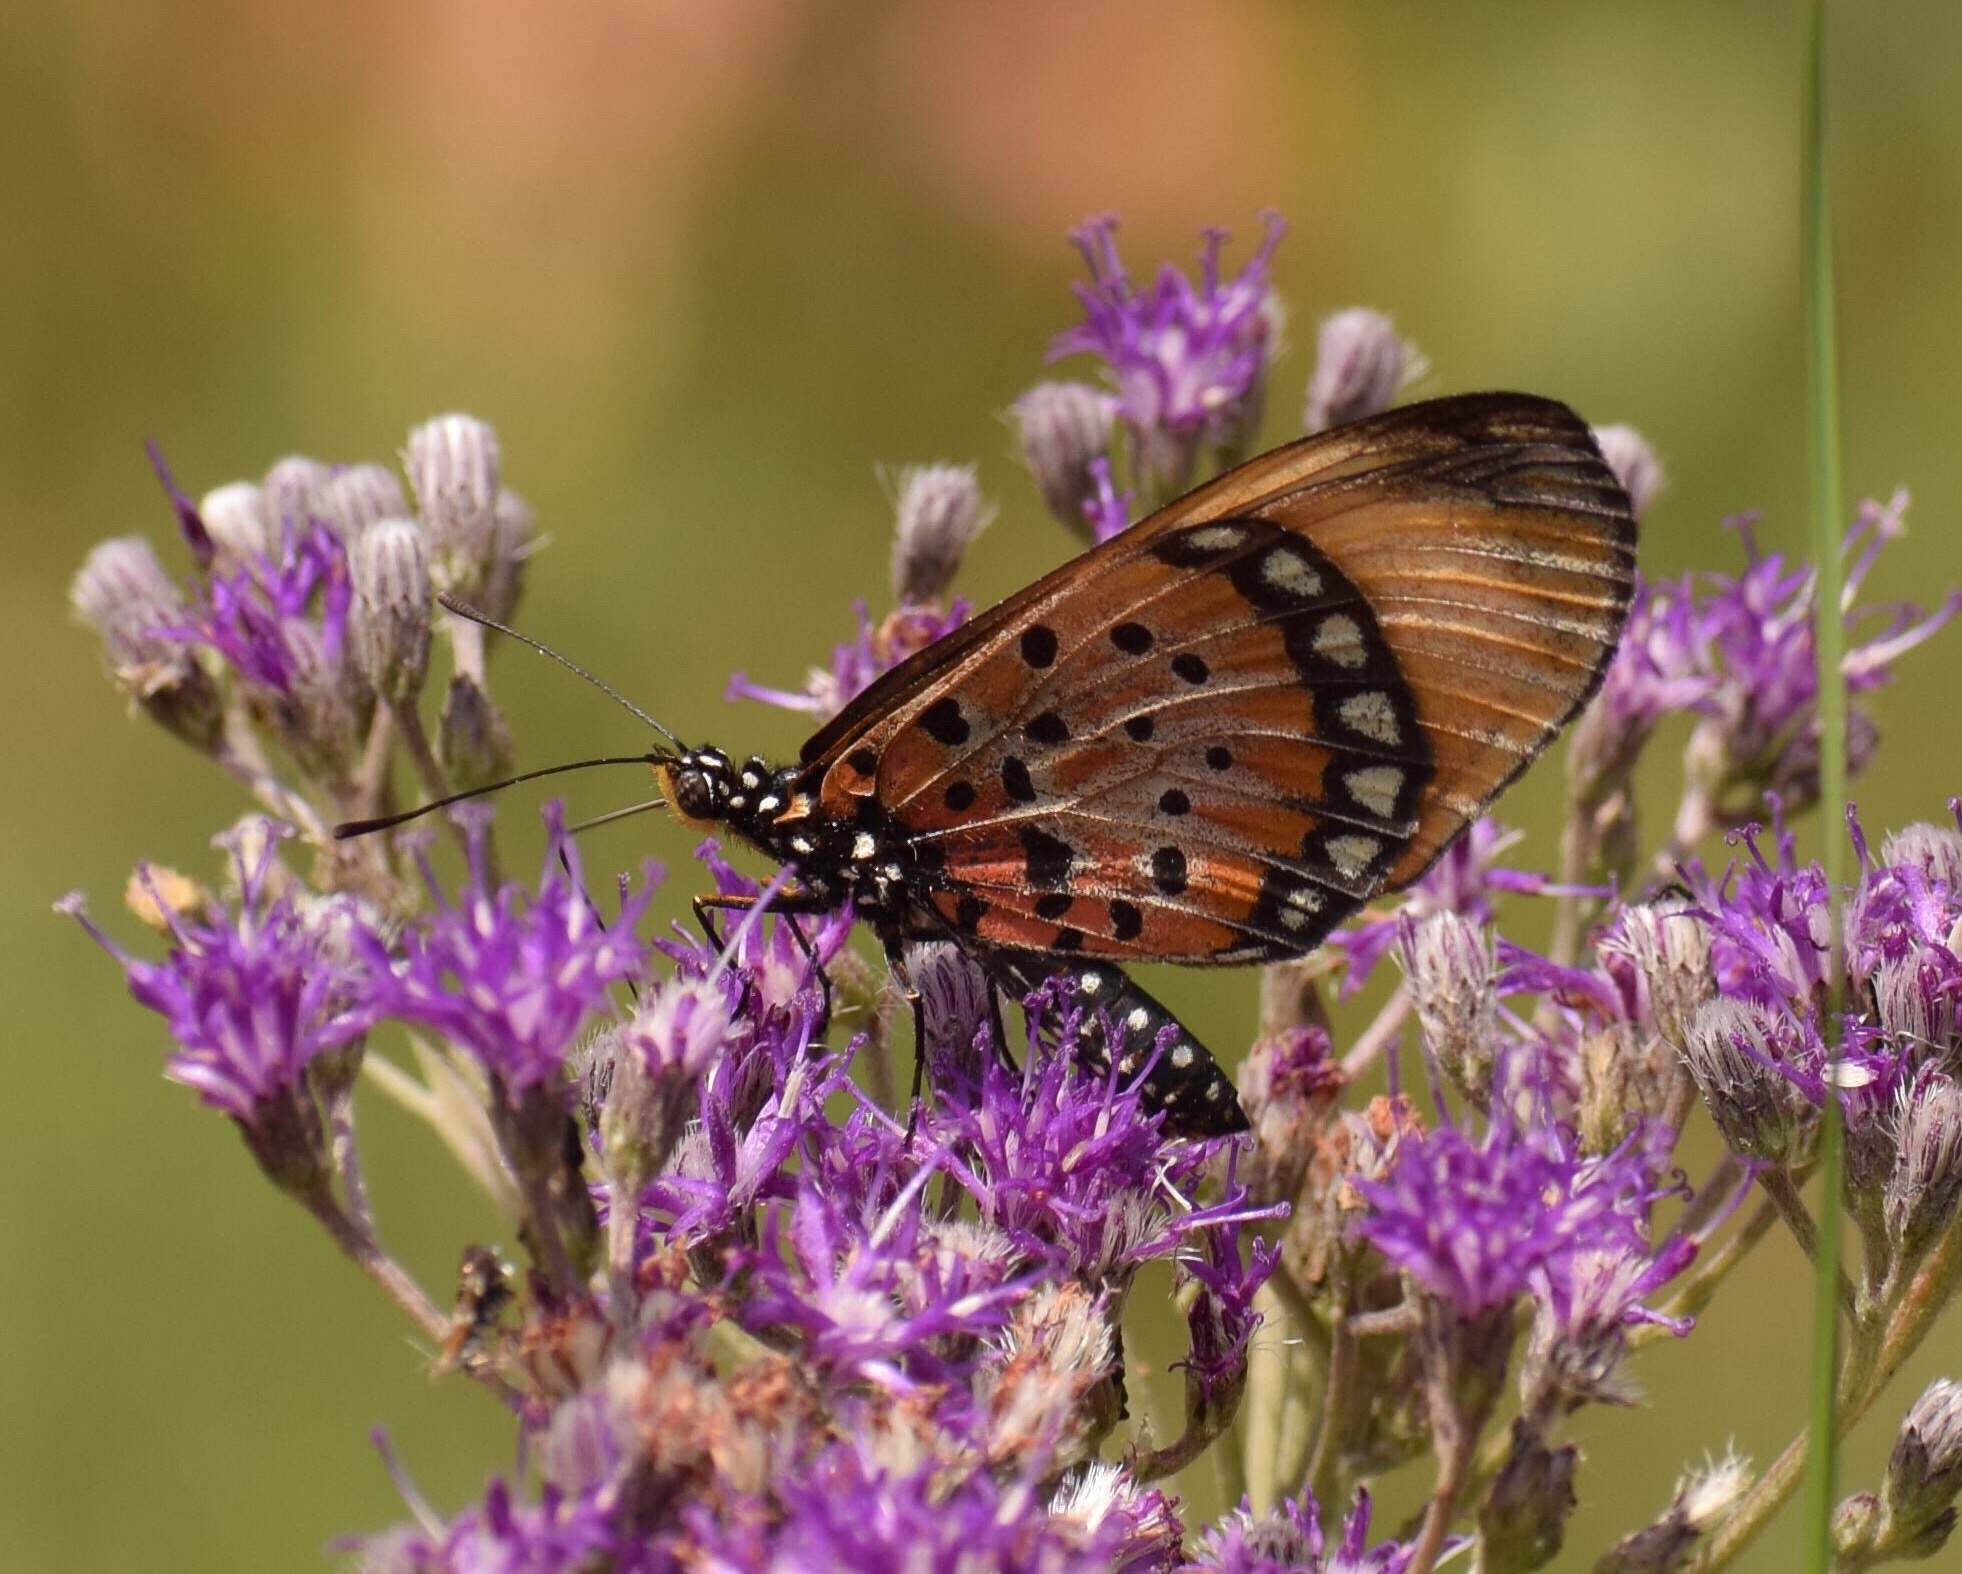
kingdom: Animalia
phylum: Arthropoda
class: Insecta
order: Lepidoptera
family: Nymphalidae
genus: Stephenia
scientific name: Stephenia
